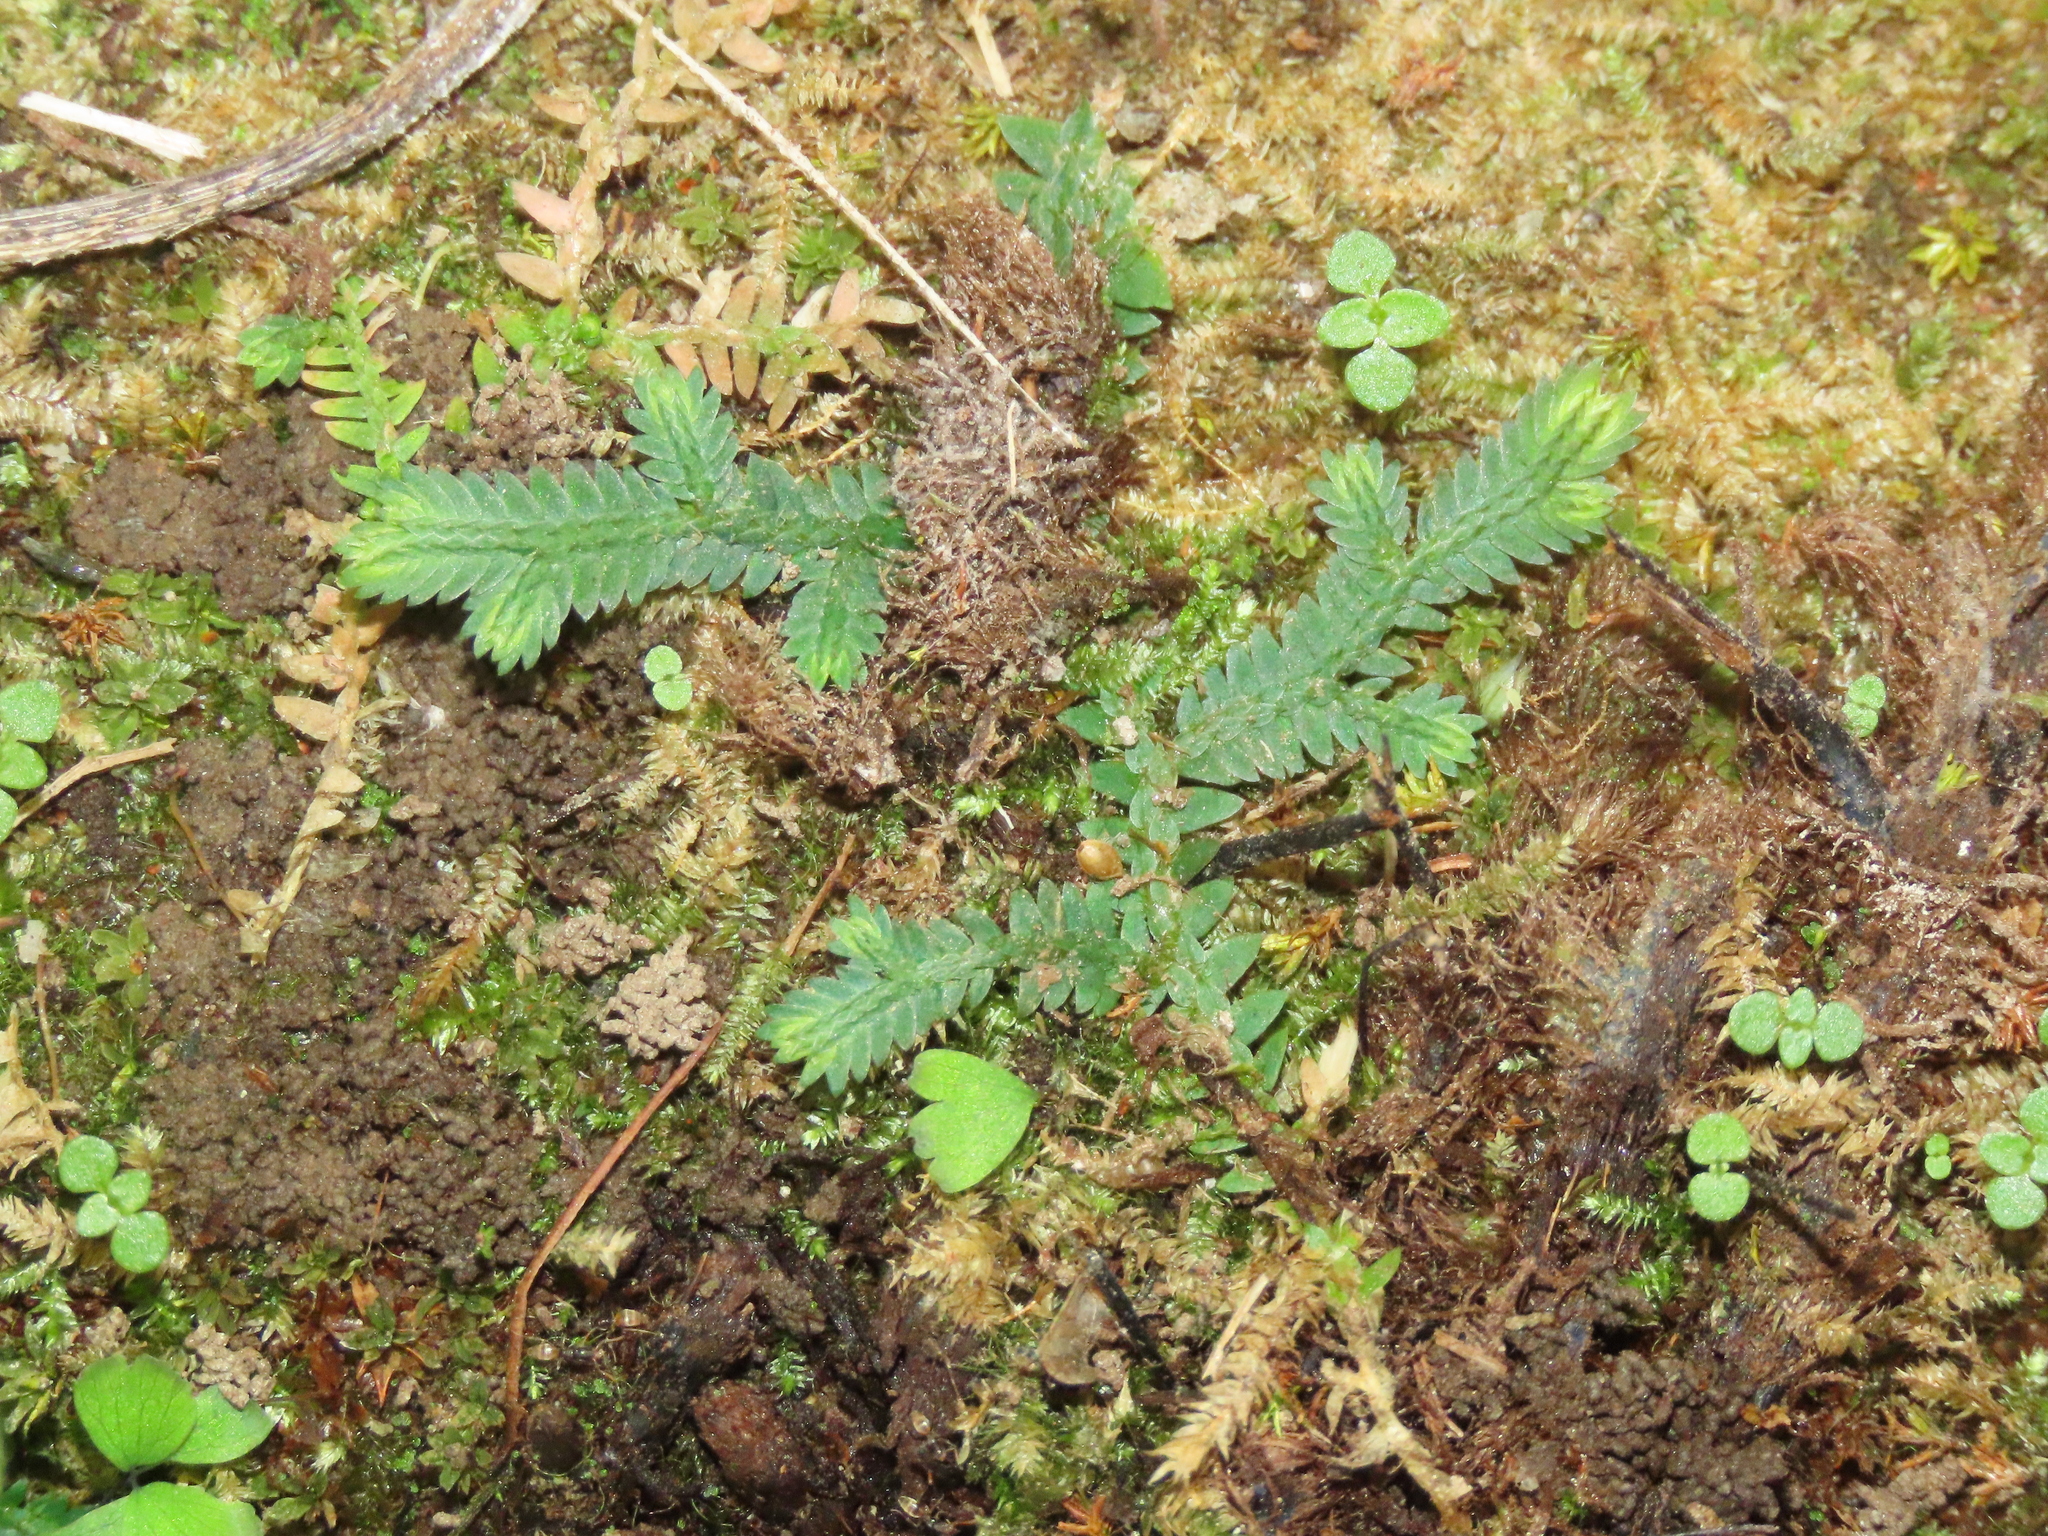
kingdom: Plantae
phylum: Tracheophyta
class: Lycopodiopsida
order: Selaginellales
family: Selaginellaceae
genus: Selaginella
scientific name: Selaginella repanda
